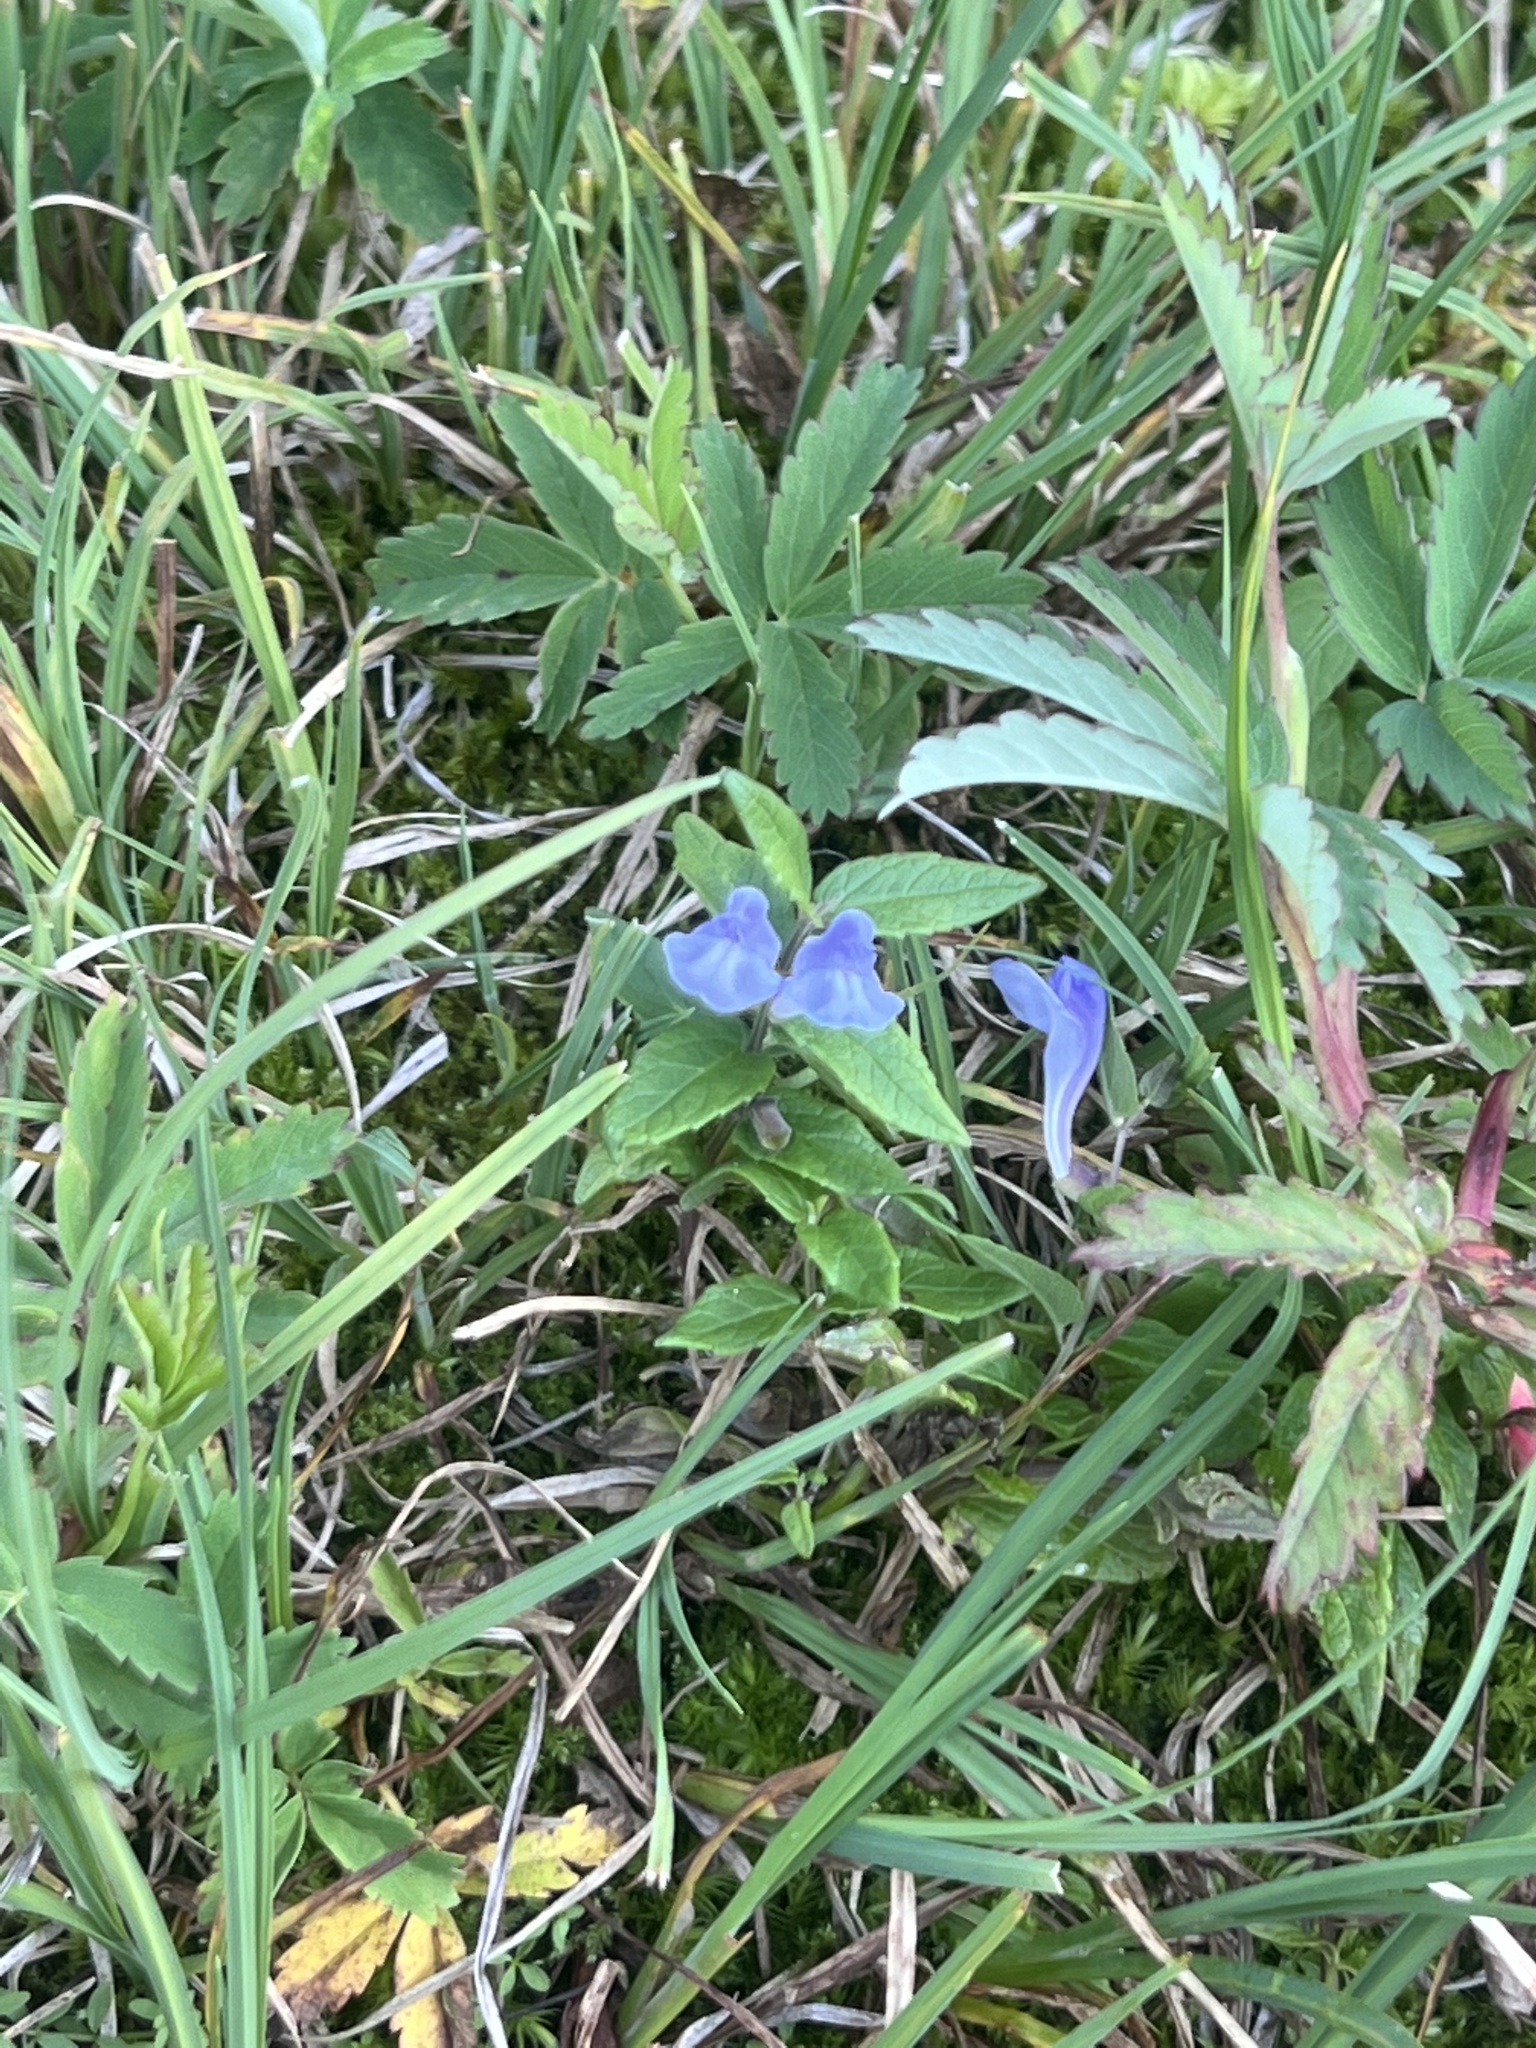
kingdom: Plantae
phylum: Tracheophyta
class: Magnoliopsida
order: Lamiales
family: Lamiaceae
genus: Scutellaria
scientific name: Scutellaria galericulata
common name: Skullcap
